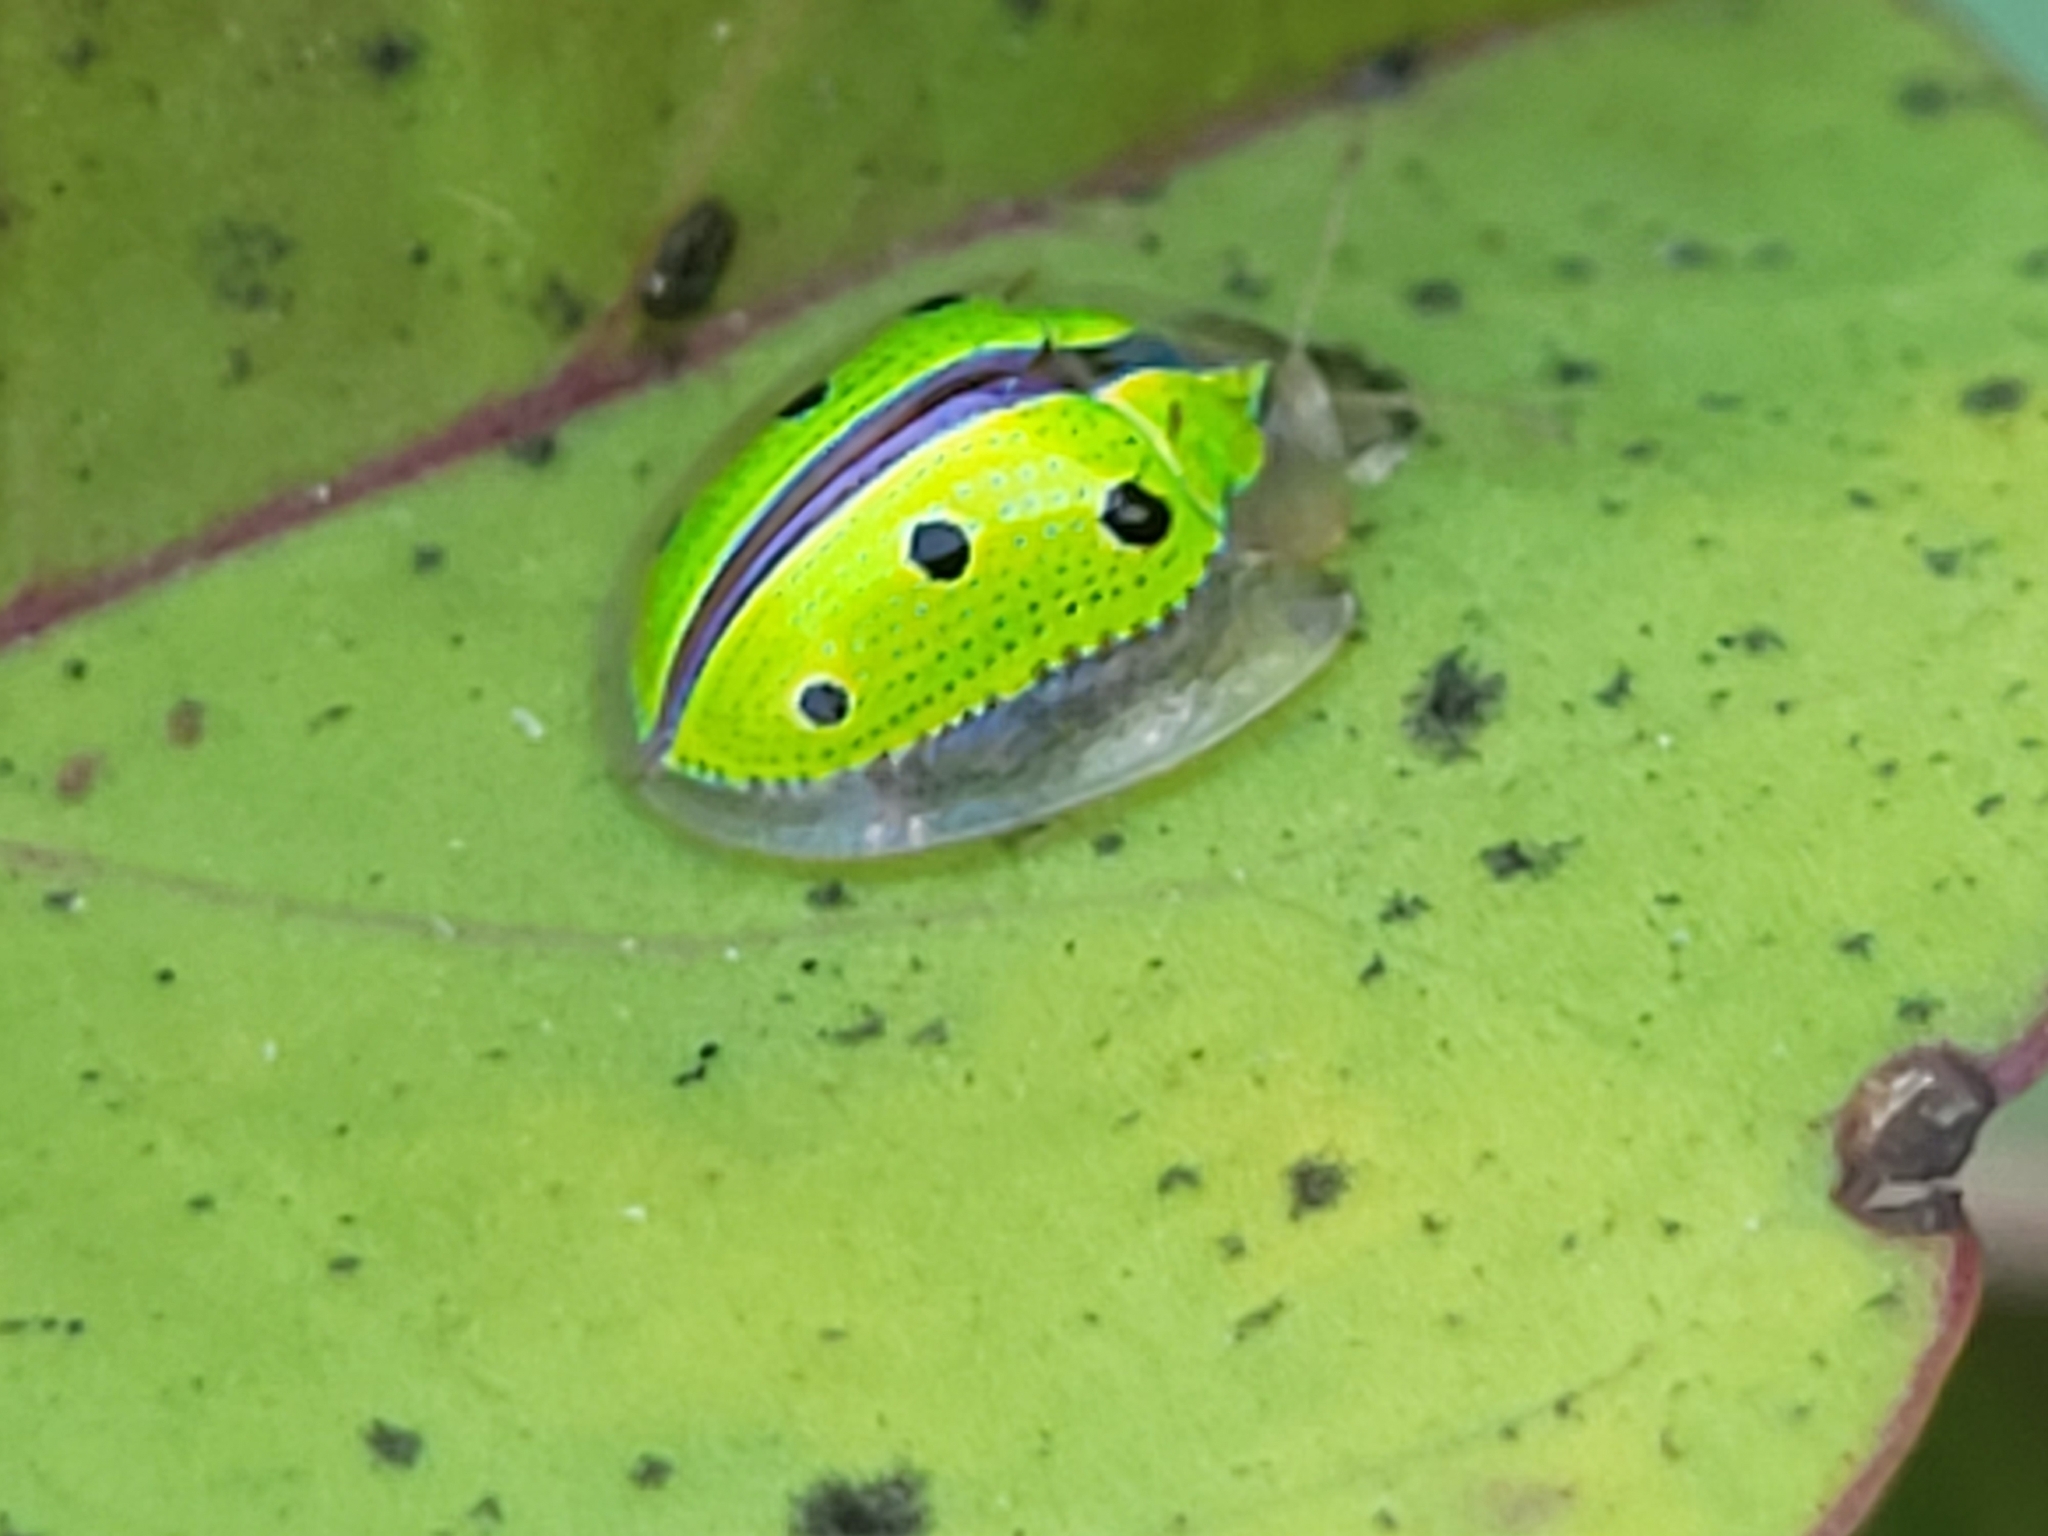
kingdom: Animalia
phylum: Arthropoda
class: Insecta
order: Coleoptera
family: Chrysomelidae
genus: Chiridopsis
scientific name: Chiridopsis bipunctata
